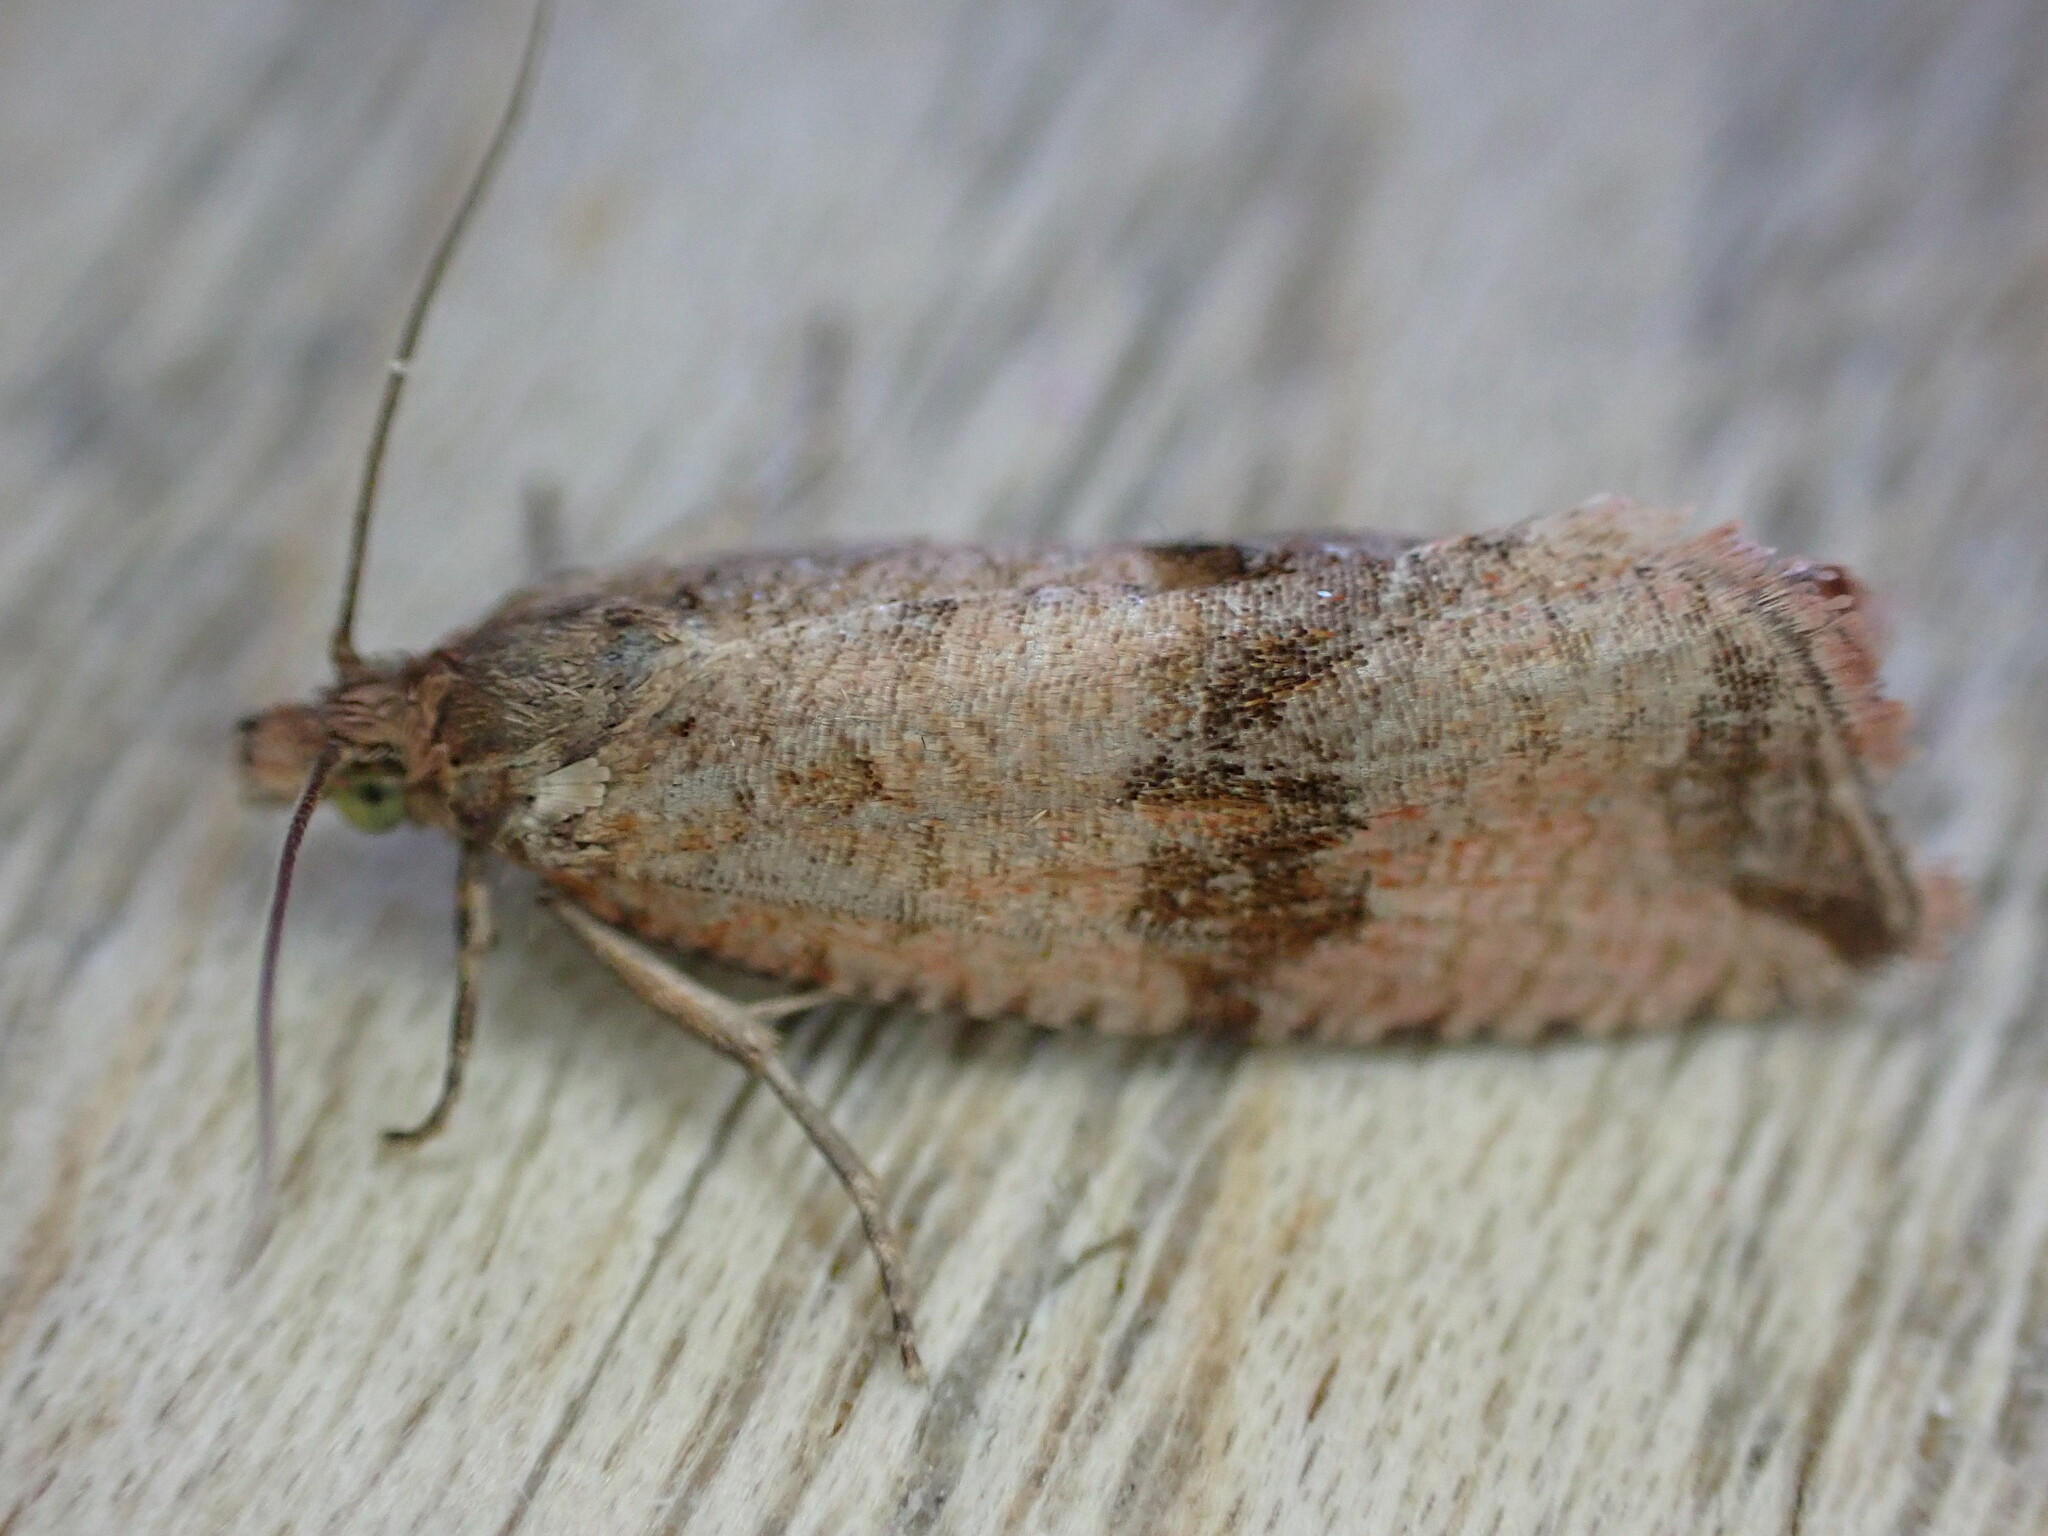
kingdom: Animalia
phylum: Arthropoda
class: Insecta
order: Lepidoptera
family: Tortricidae
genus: Celypha
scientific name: Celypha striana
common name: Barred marble
